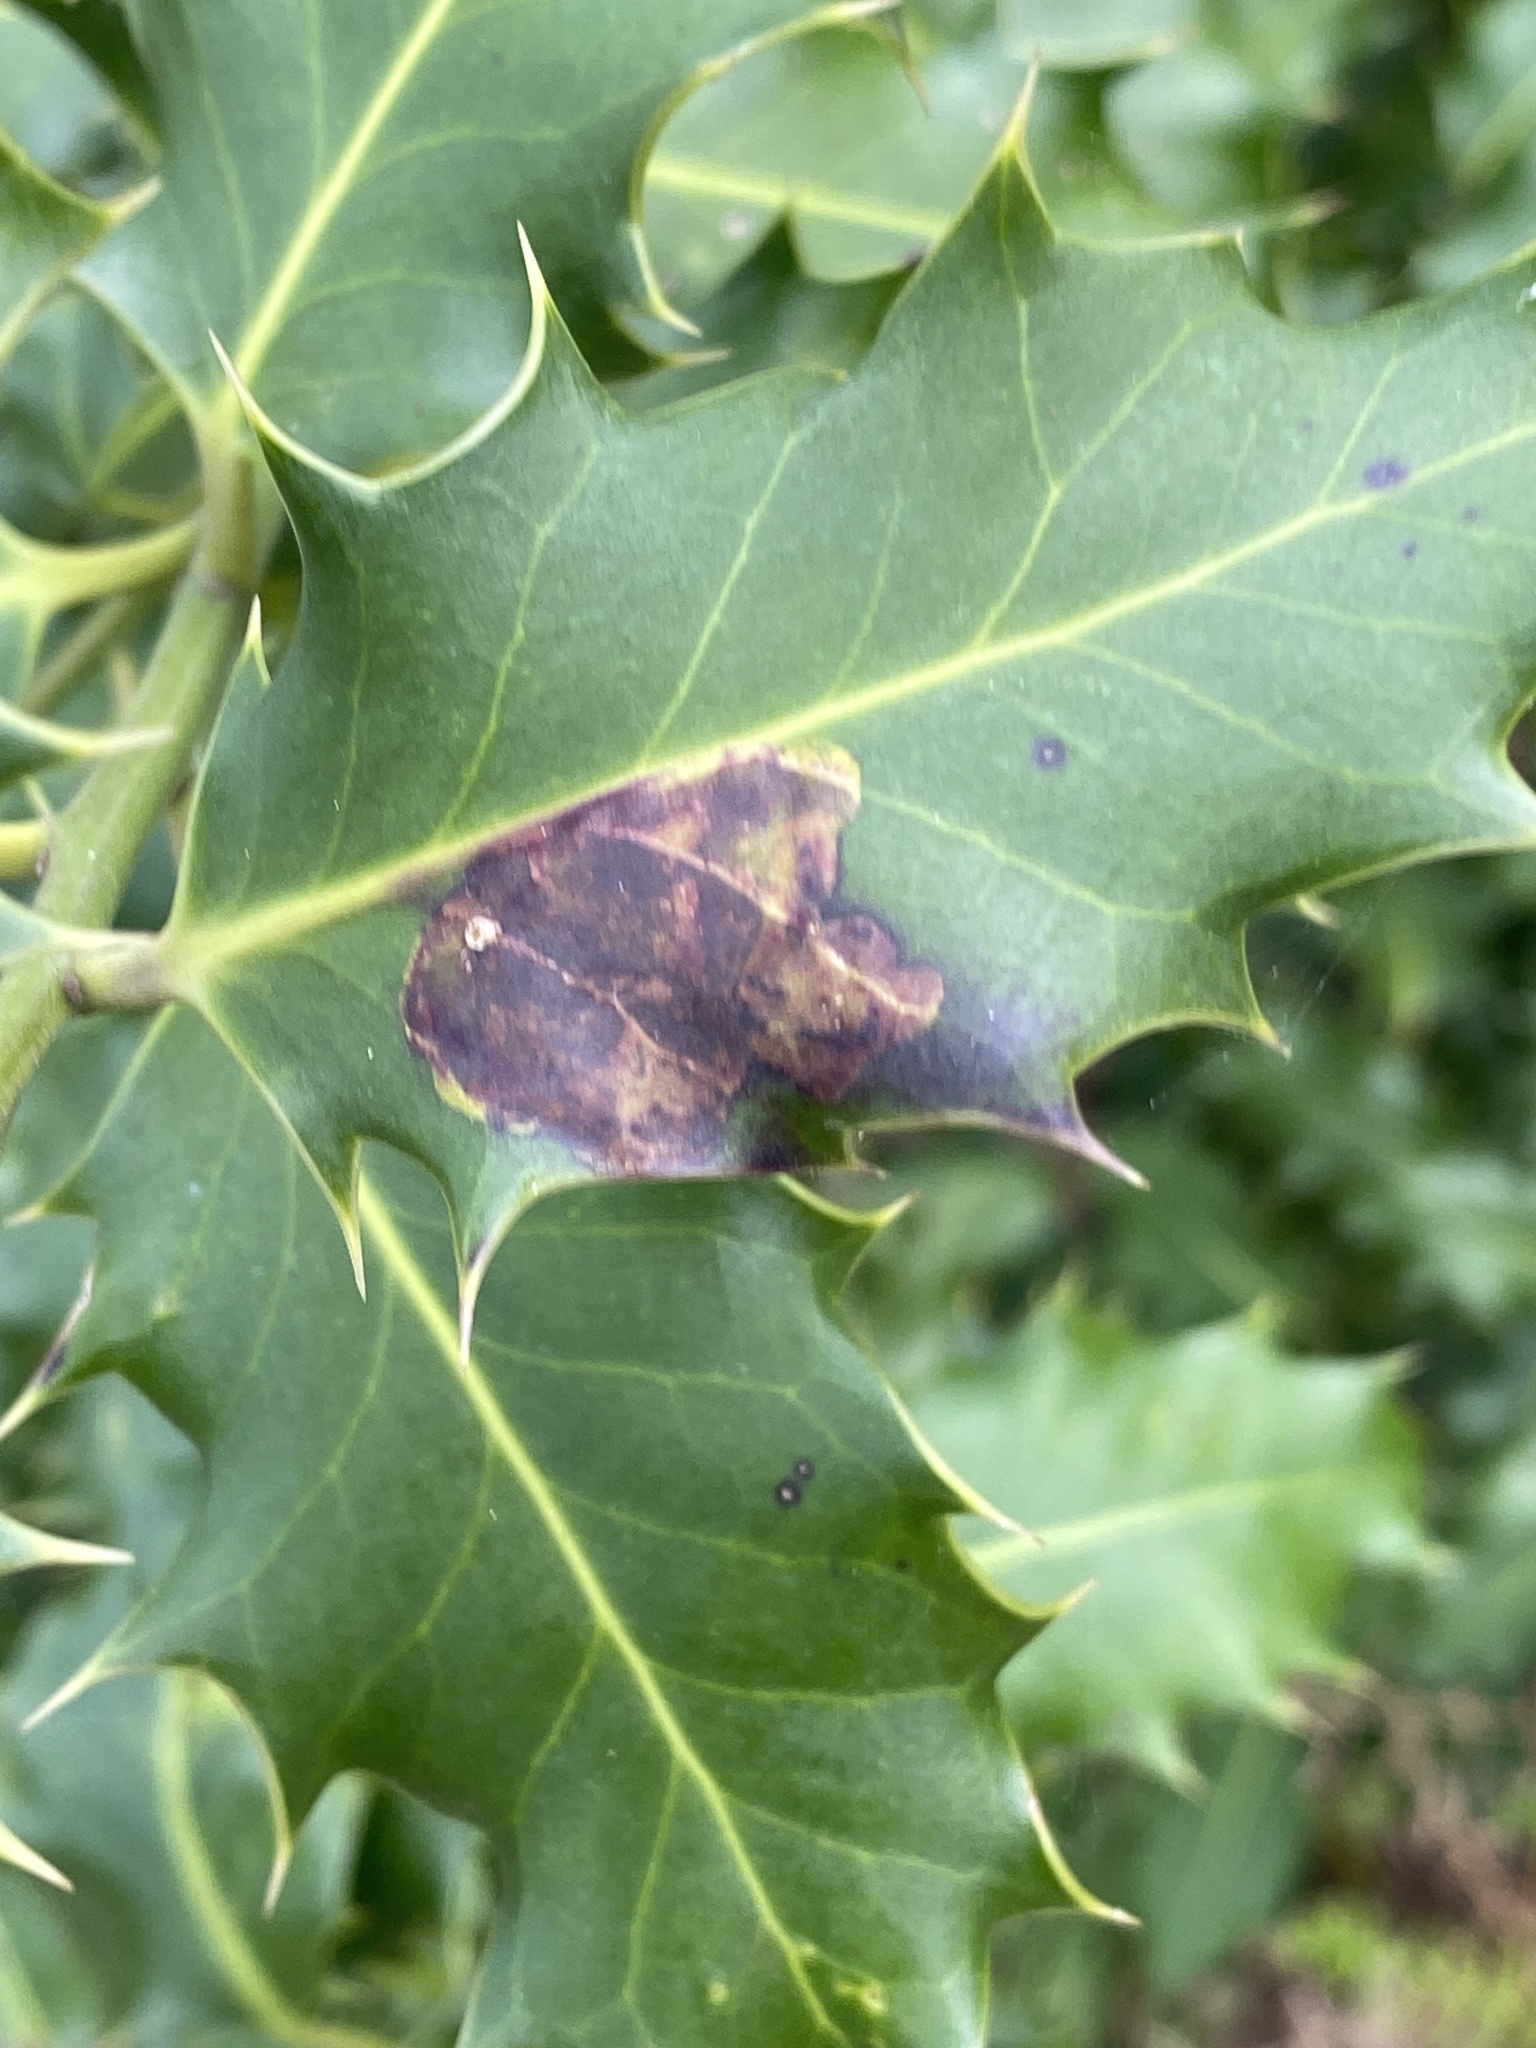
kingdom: Animalia
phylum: Arthropoda
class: Insecta
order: Diptera
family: Agromyzidae
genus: Phytomyza
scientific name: Phytomyza ilicis
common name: Holly leafminer
